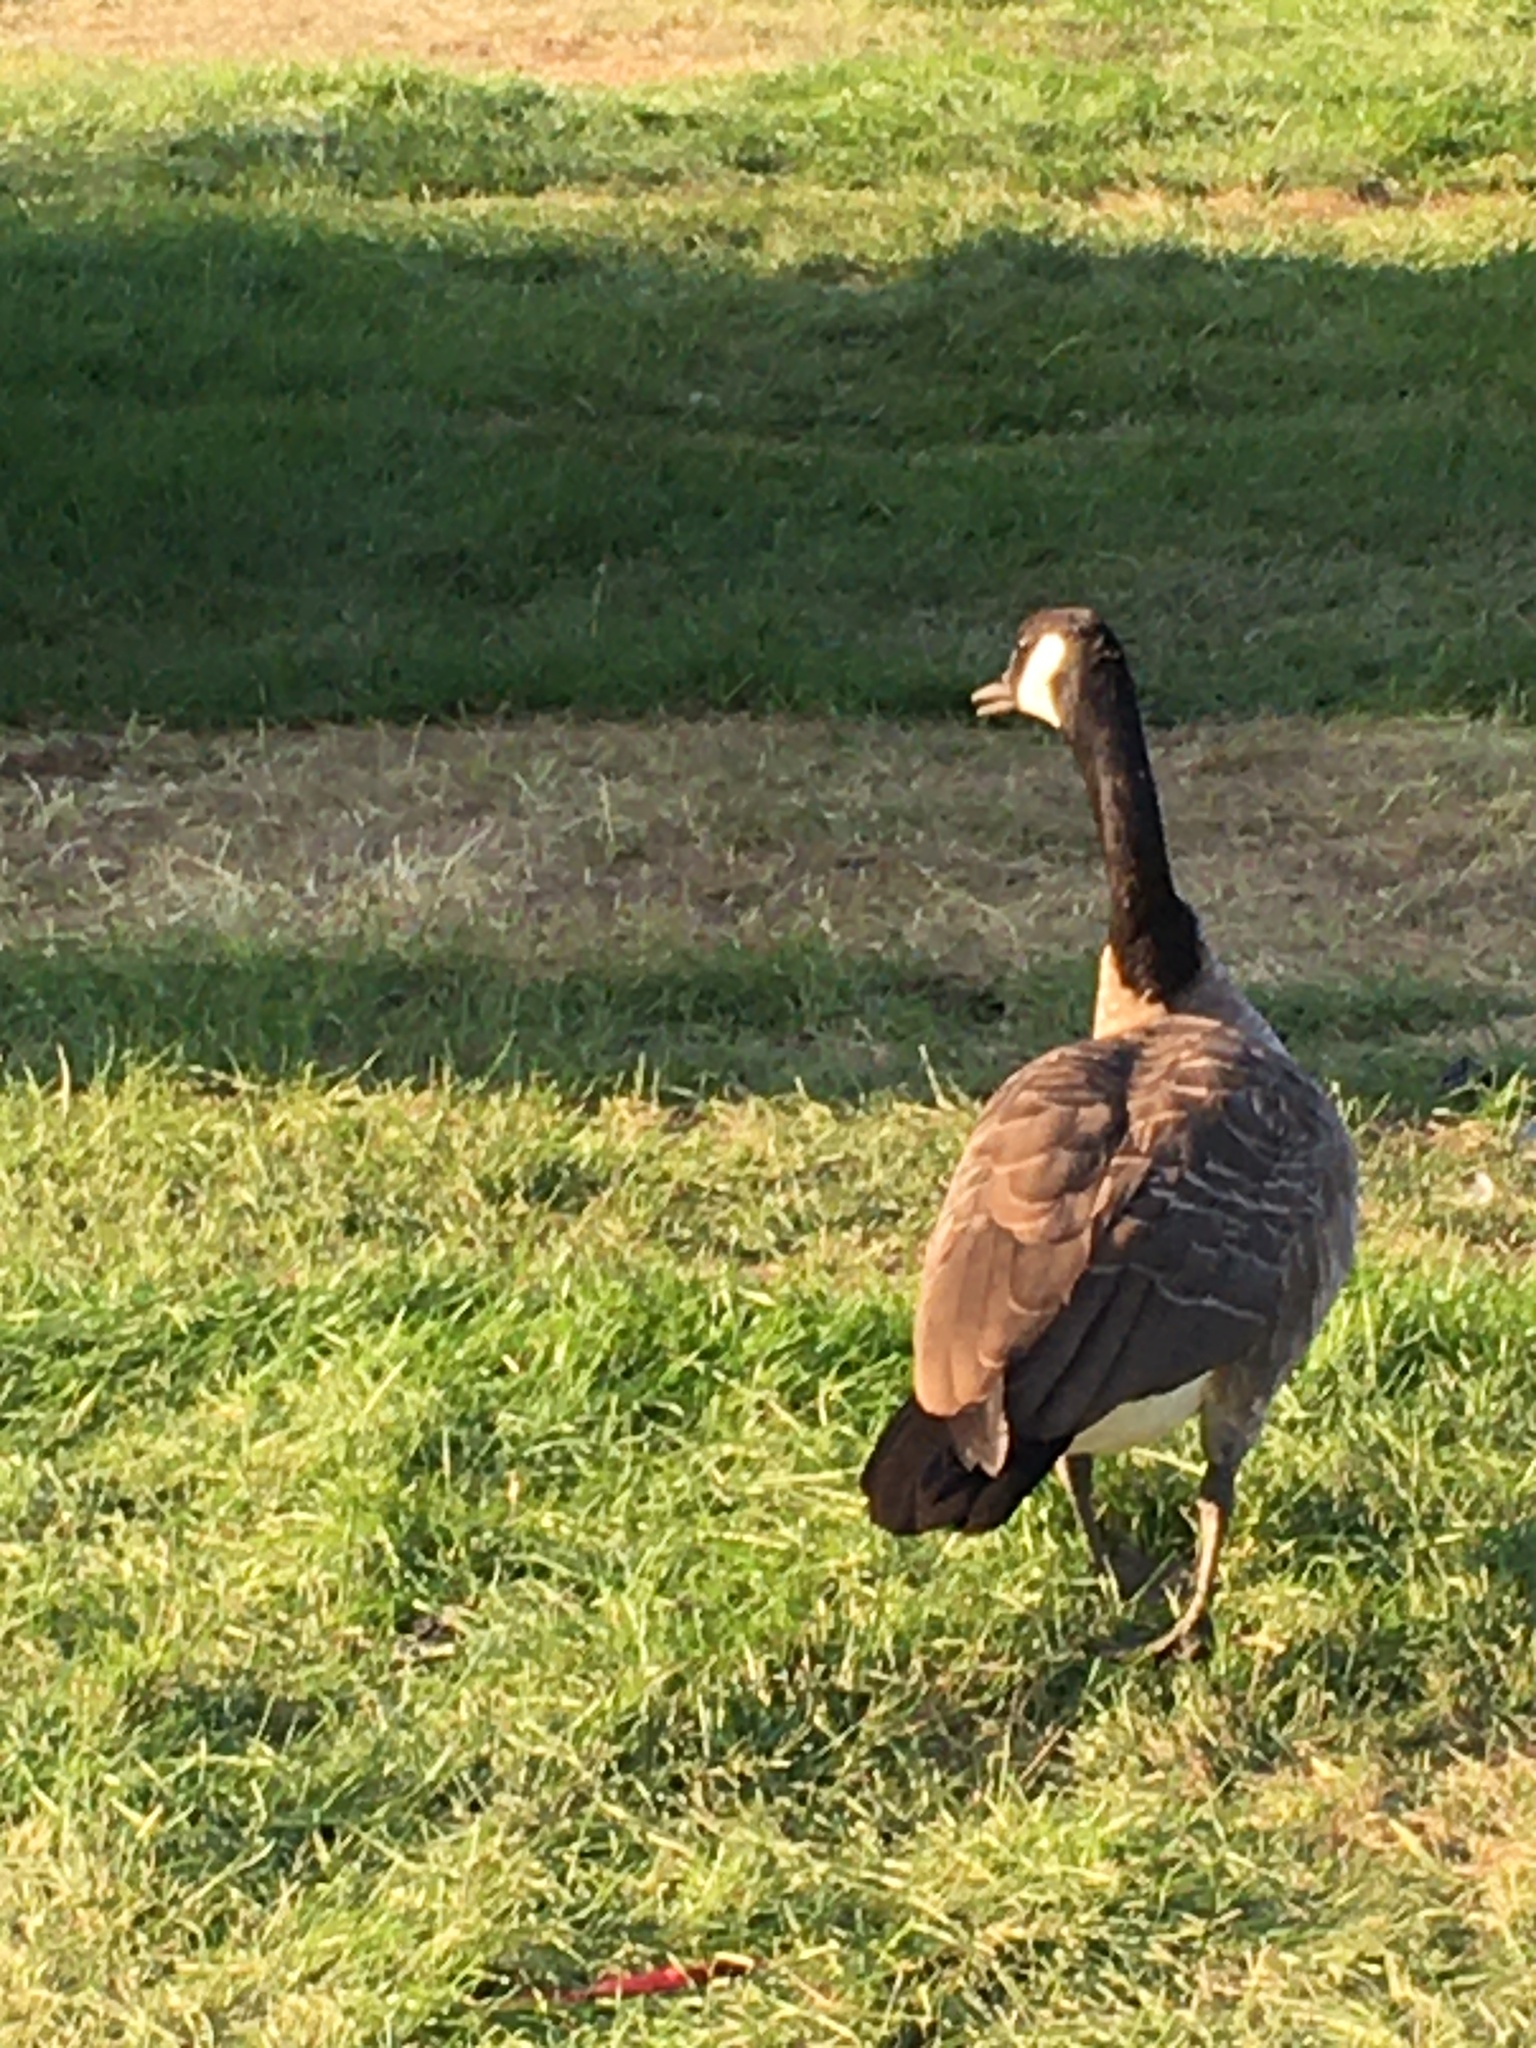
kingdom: Animalia
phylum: Chordata
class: Aves
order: Anseriformes
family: Anatidae
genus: Branta
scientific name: Branta canadensis
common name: Canada goose
